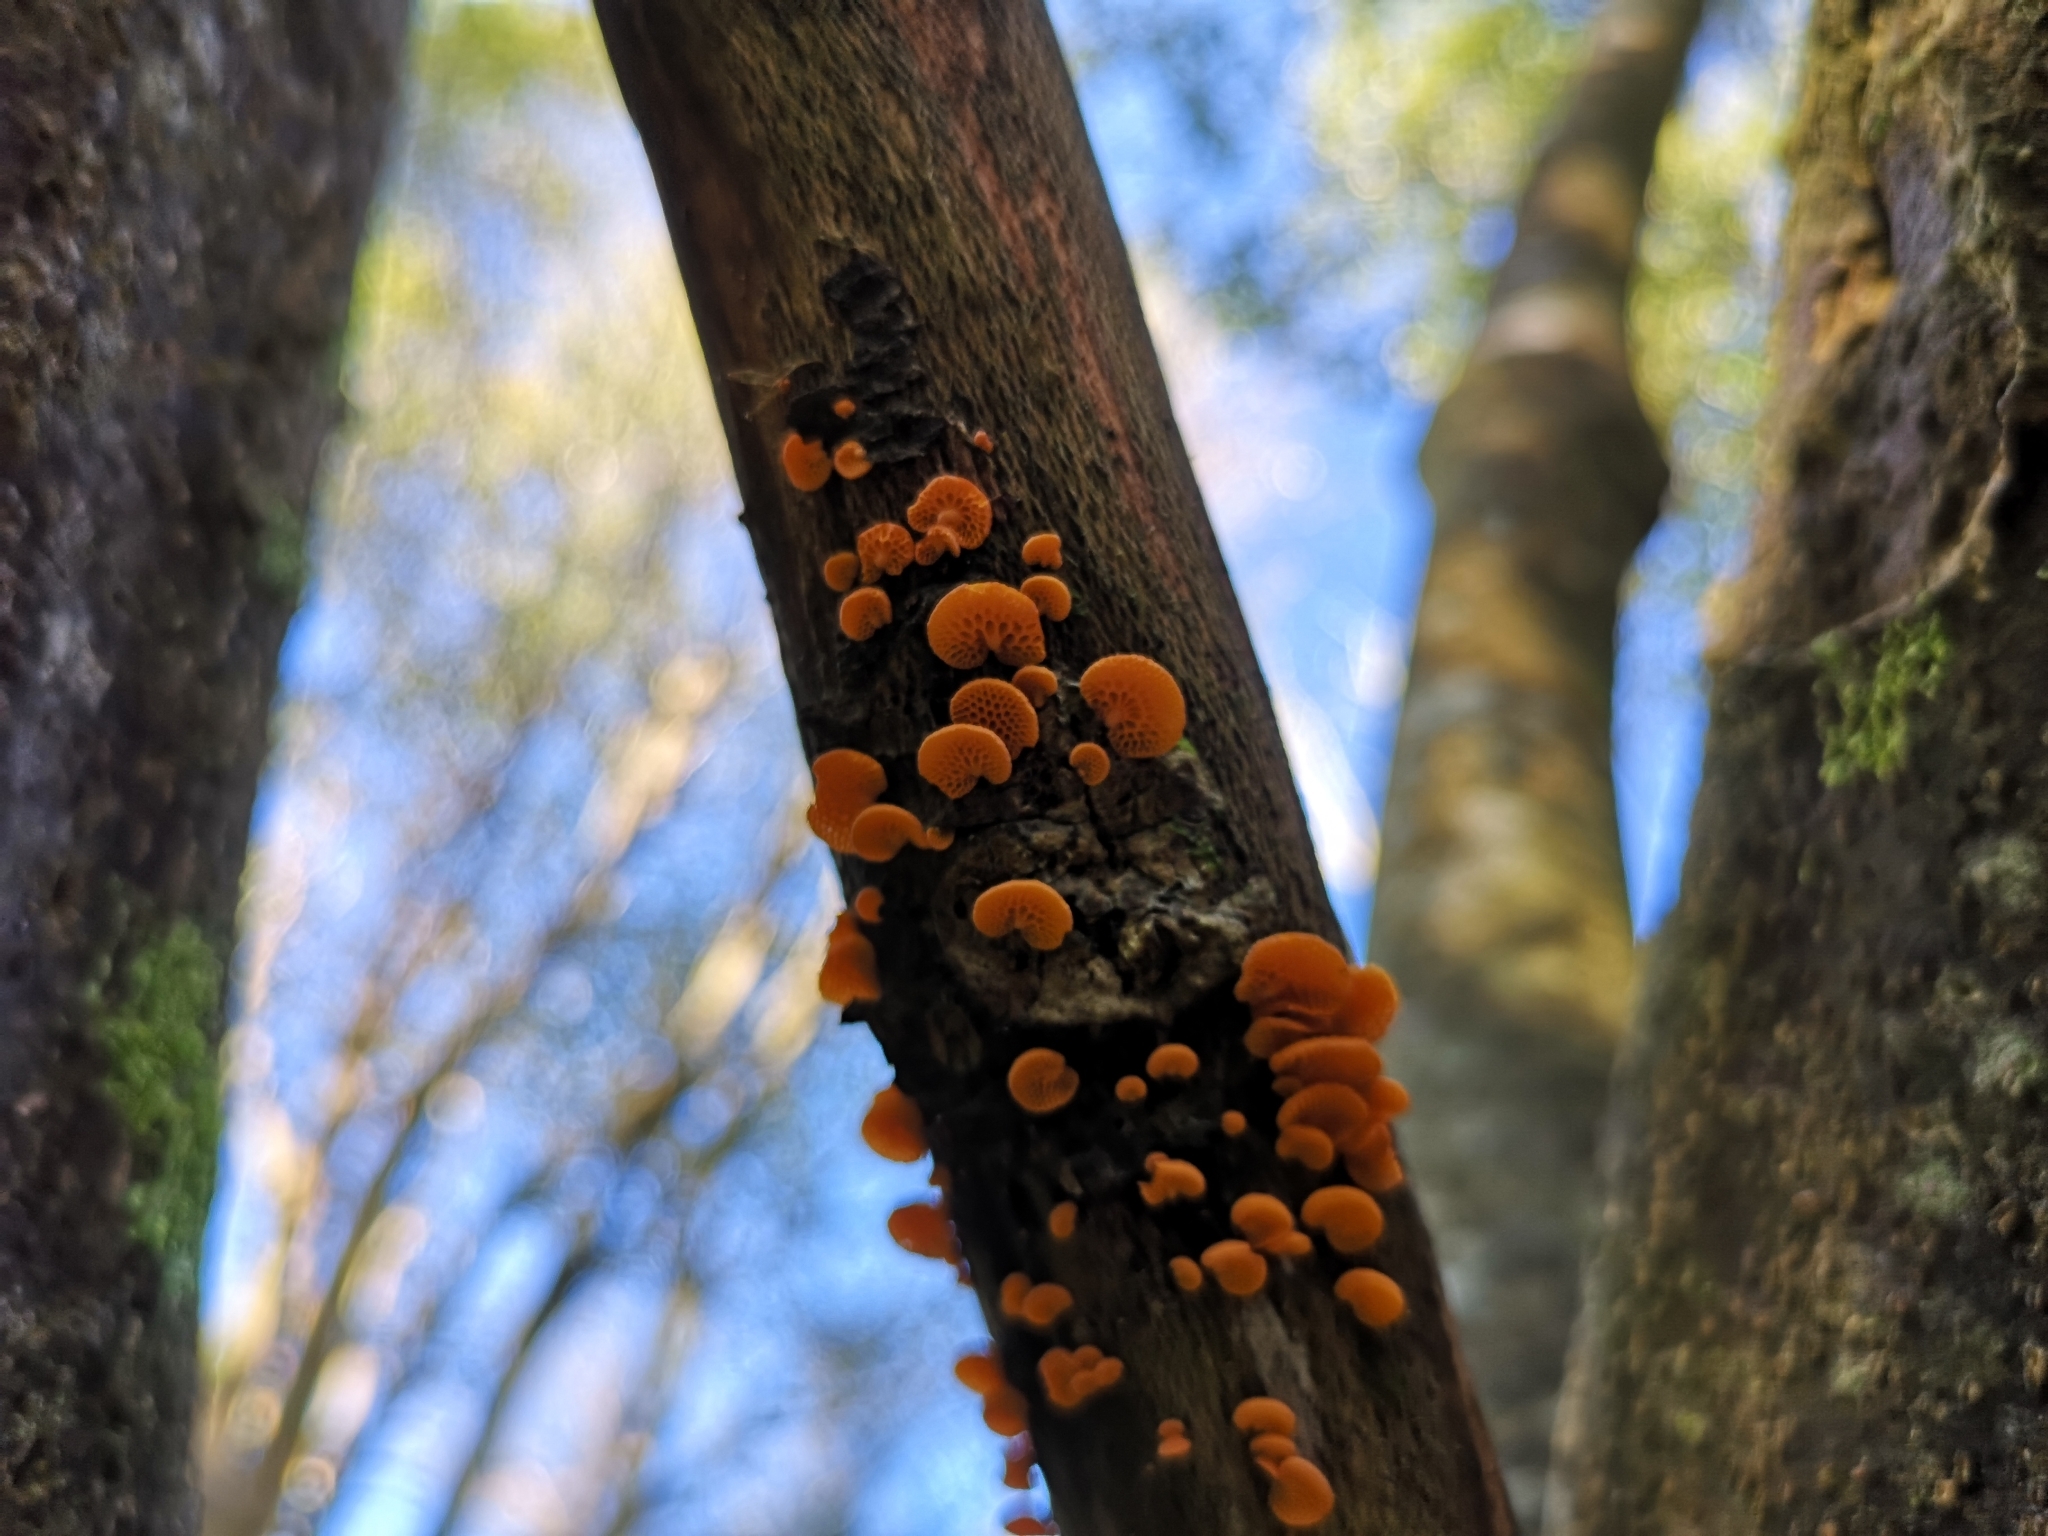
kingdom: Fungi
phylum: Basidiomycota
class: Agaricomycetes
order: Agaricales
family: Mycenaceae
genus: Favolaschia
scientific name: Favolaschia claudopus
